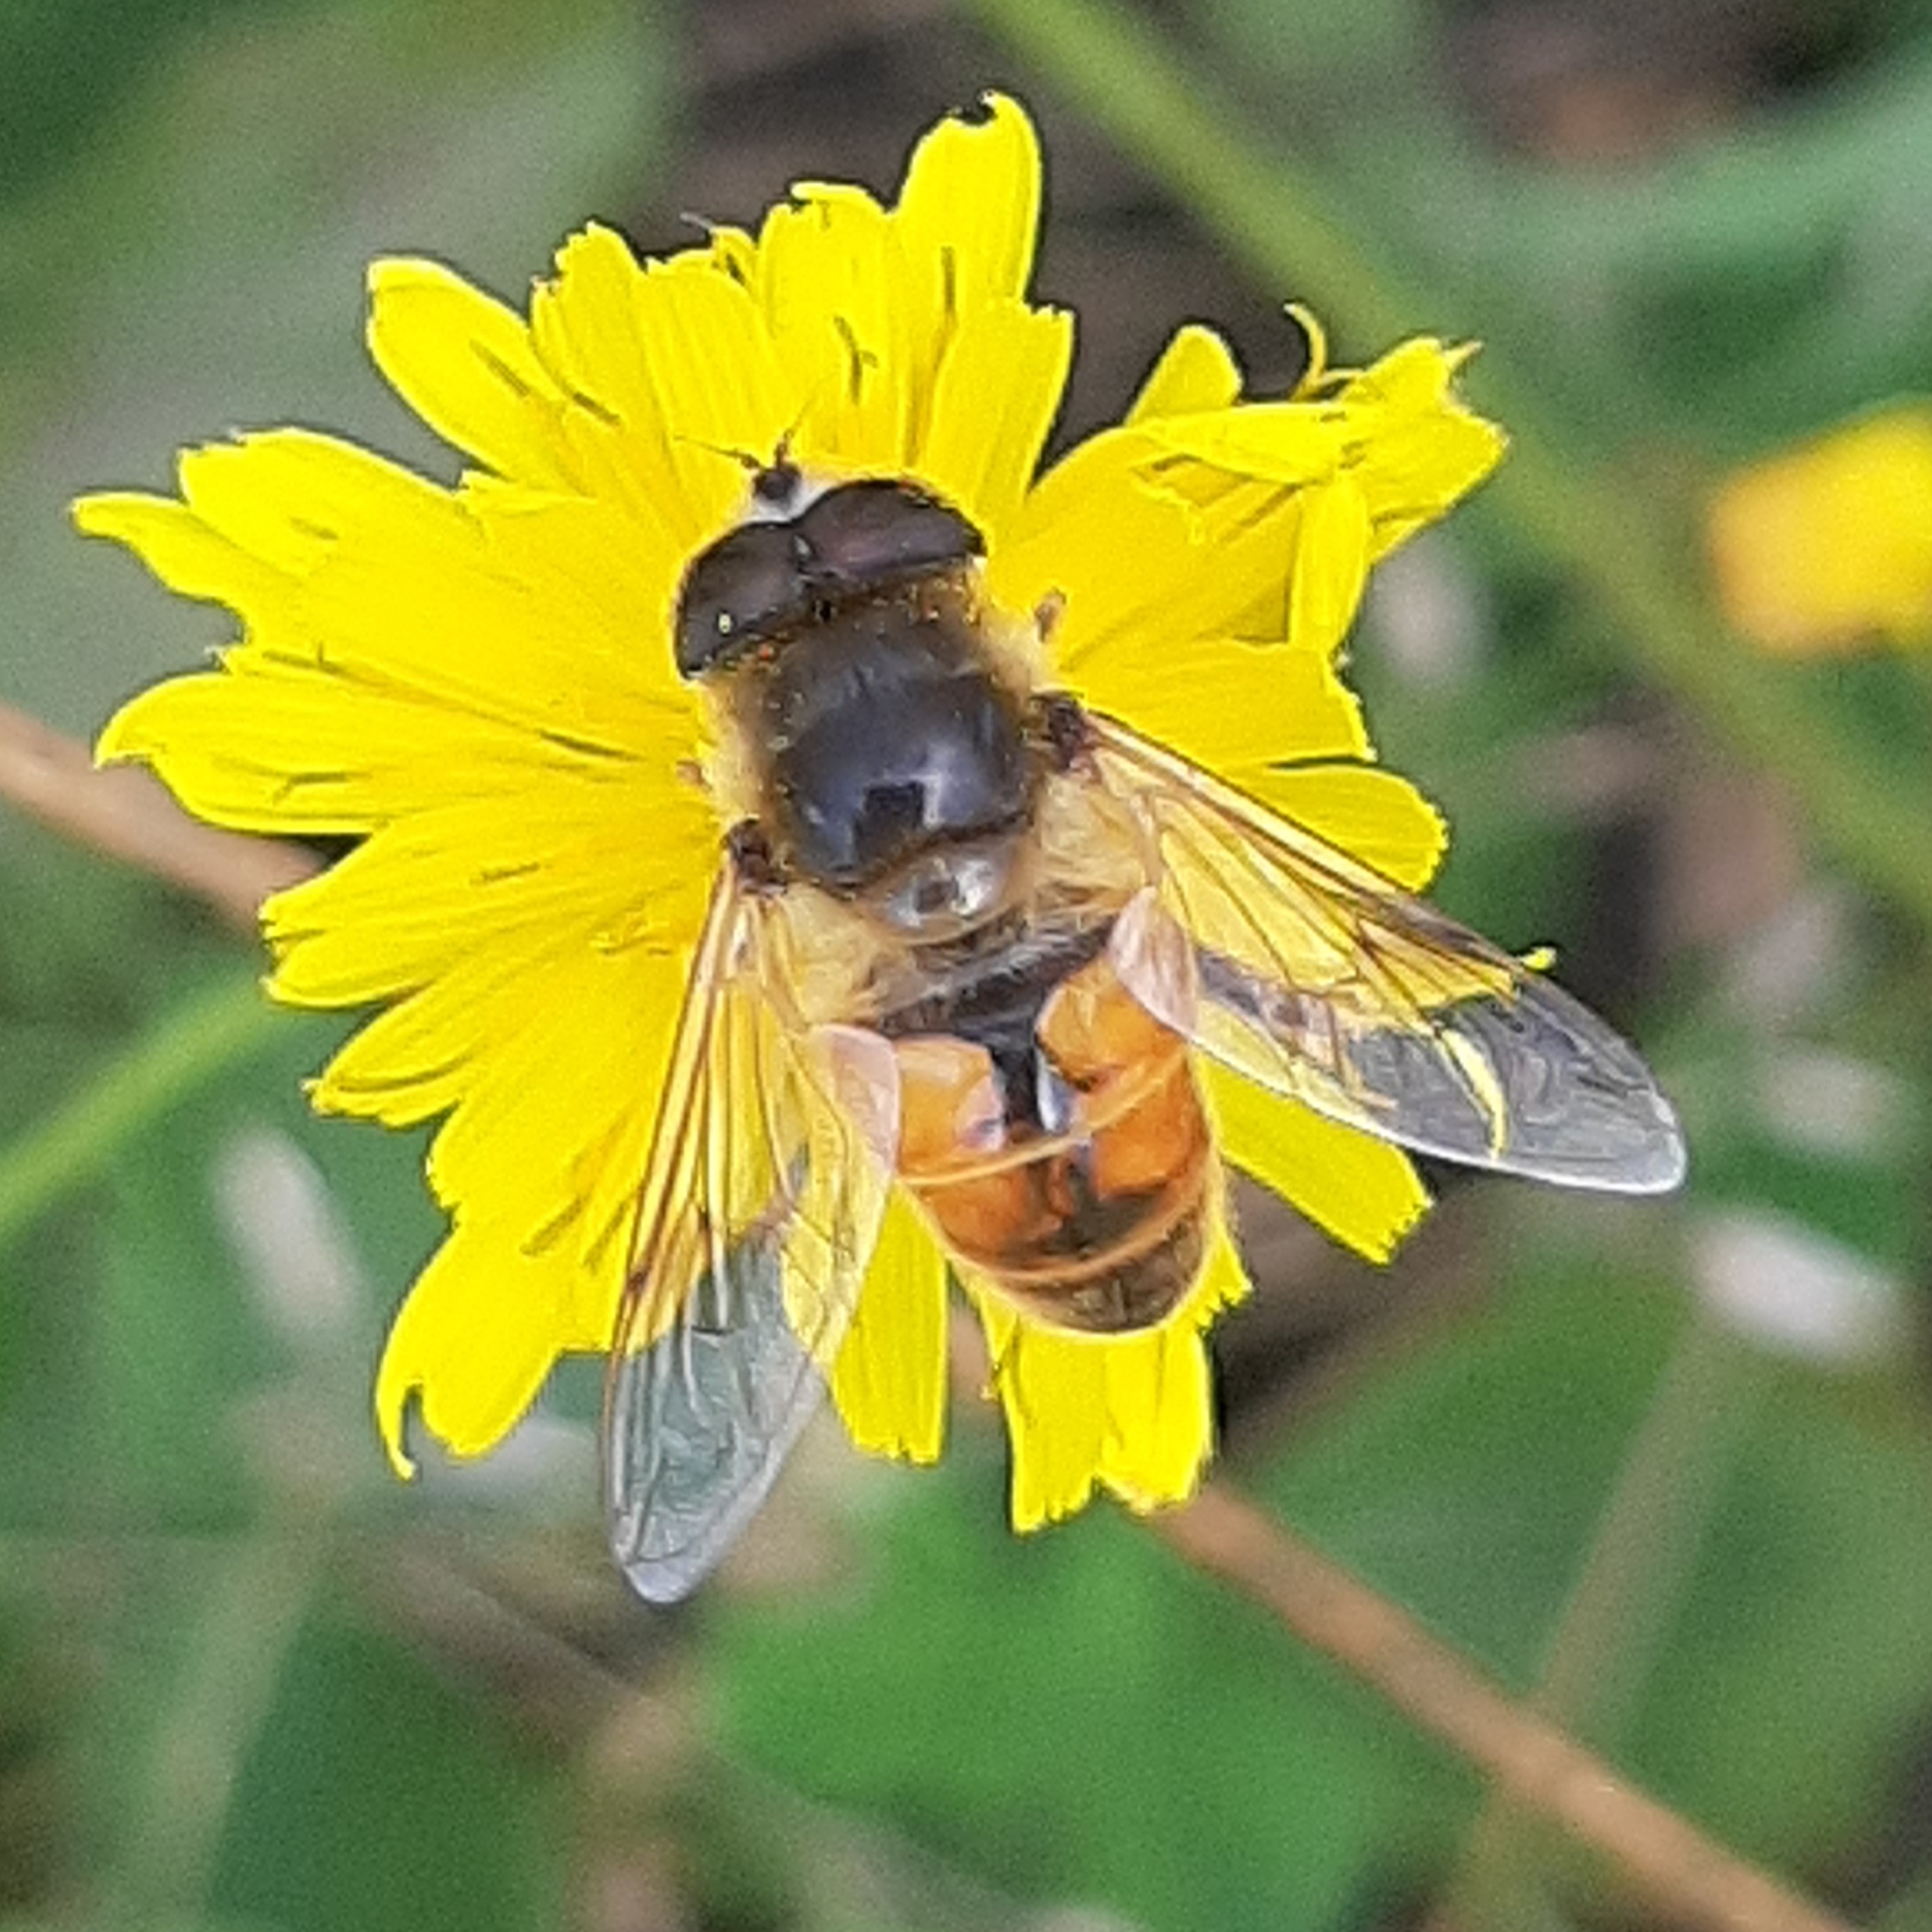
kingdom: Animalia
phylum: Arthropoda
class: Insecta
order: Diptera
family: Syrphidae
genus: Eristalis
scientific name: Eristalis tenax
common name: Drone fly
